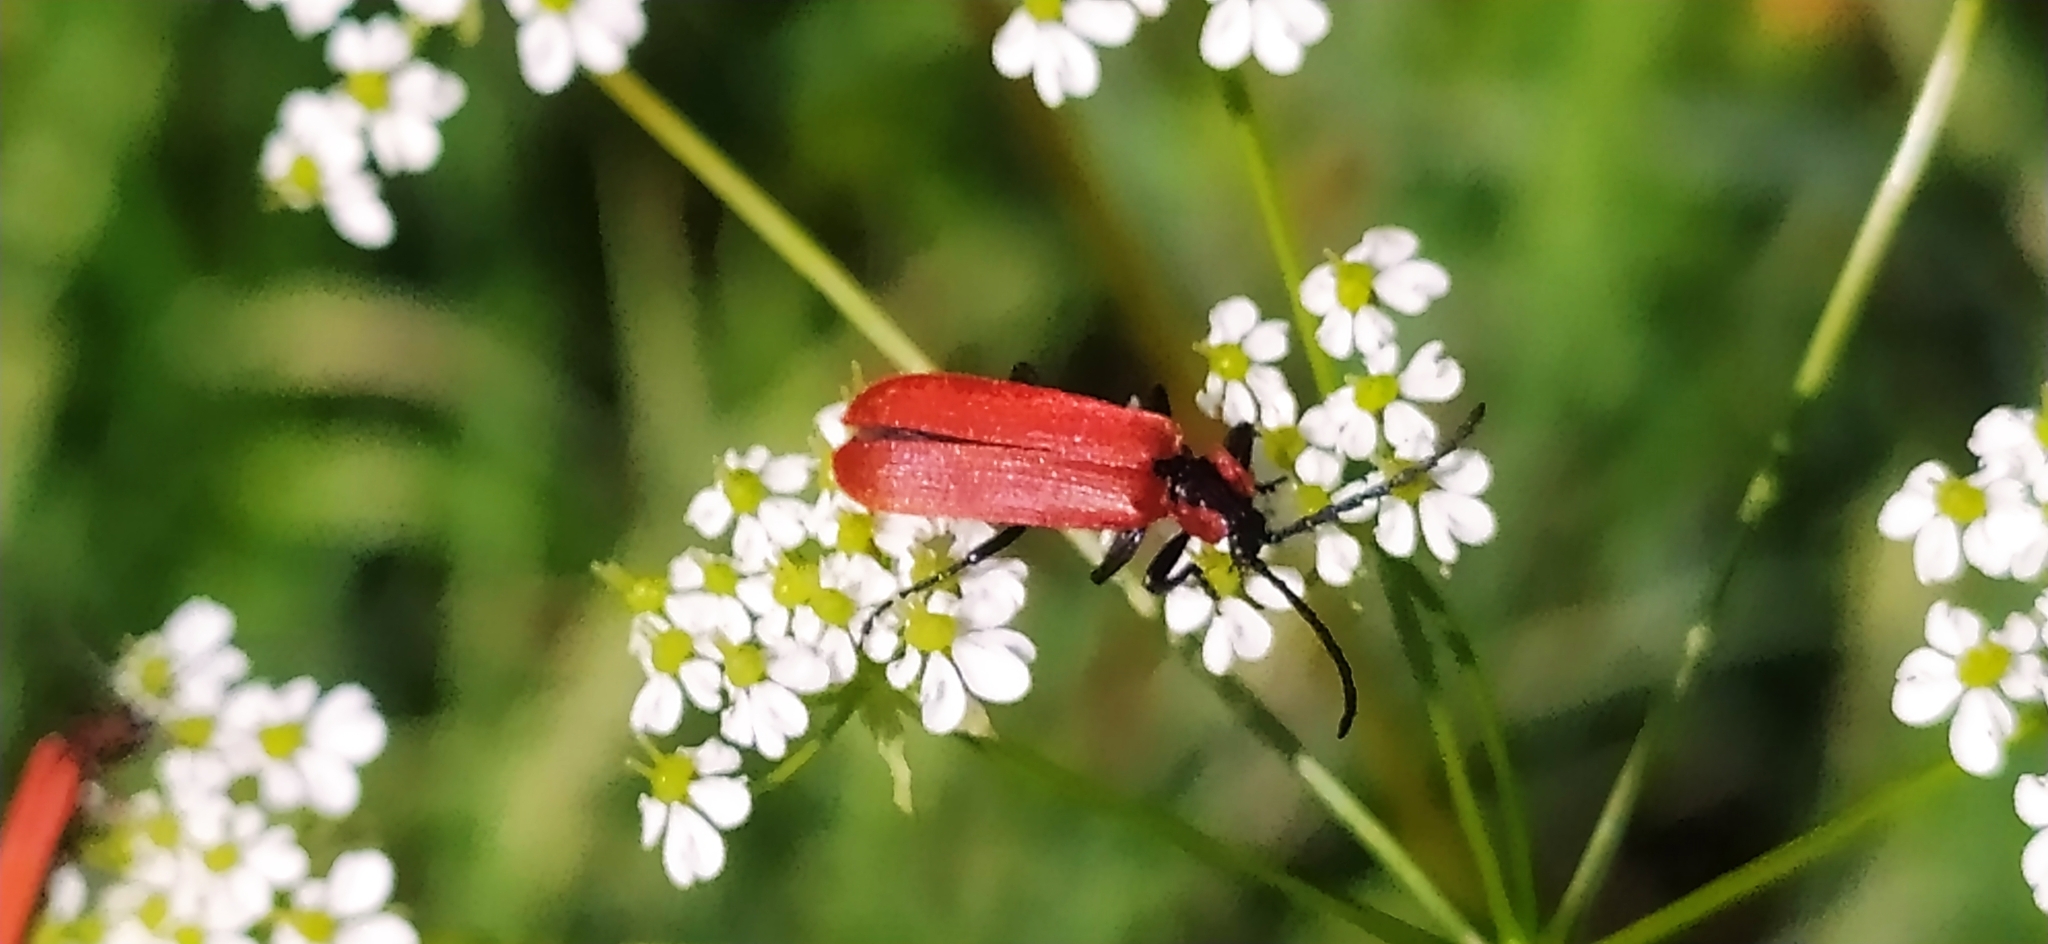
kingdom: Animalia
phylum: Arthropoda
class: Insecta
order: Coleoptera
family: Lycidae
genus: Lygistopterus
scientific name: Lygistopterus sanguineus
